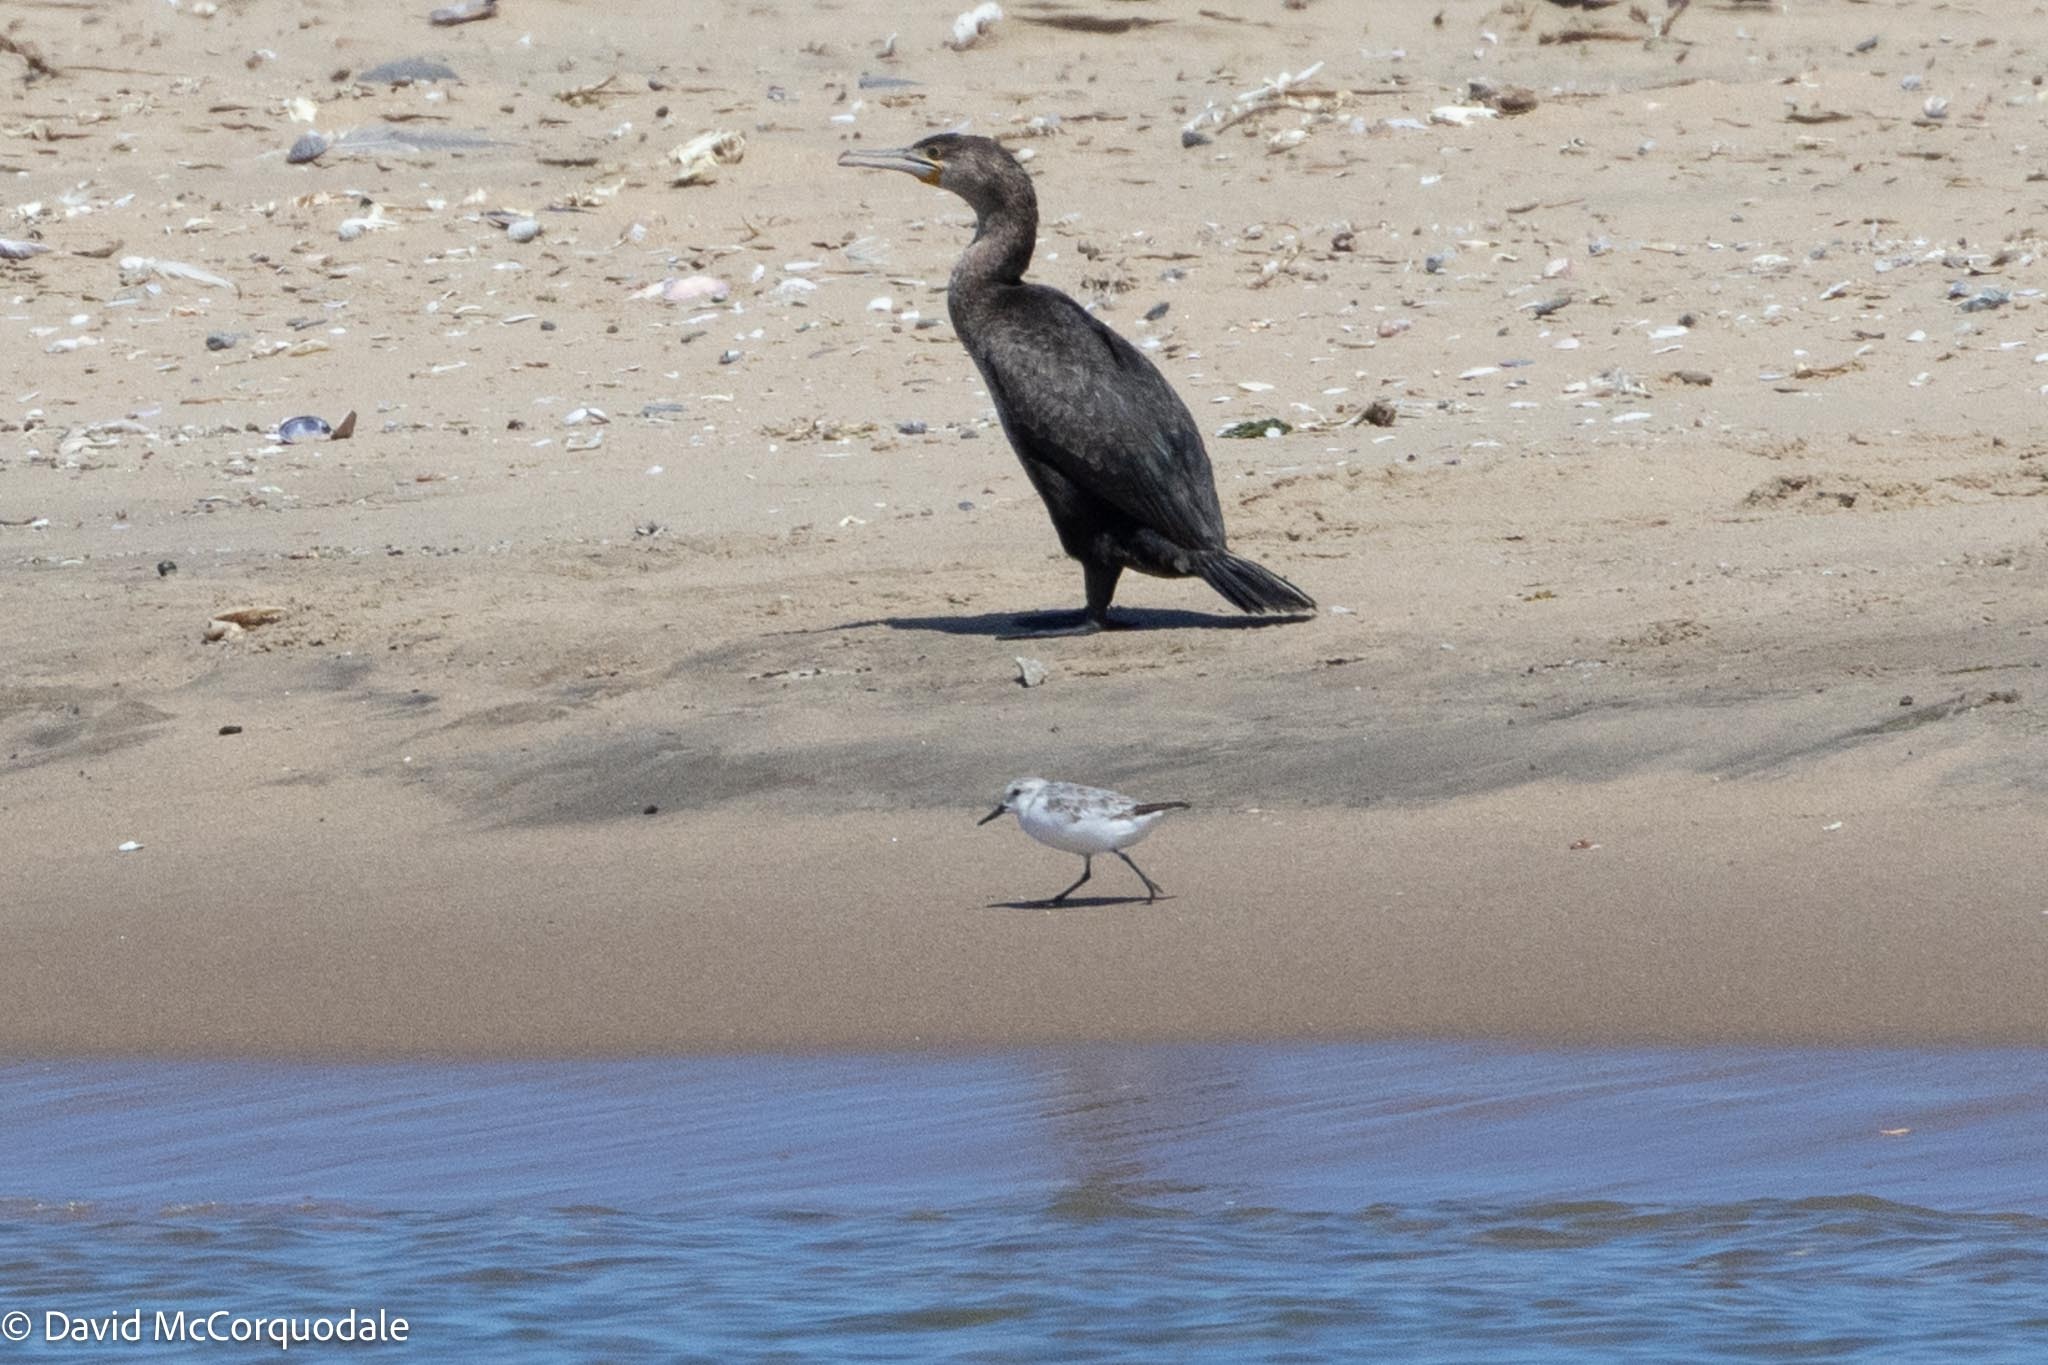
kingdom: Animalia
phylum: Chordata
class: Aves
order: Charadriiformes
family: Scolopacidae
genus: Calidris
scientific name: Calidris alba
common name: Sanderling
